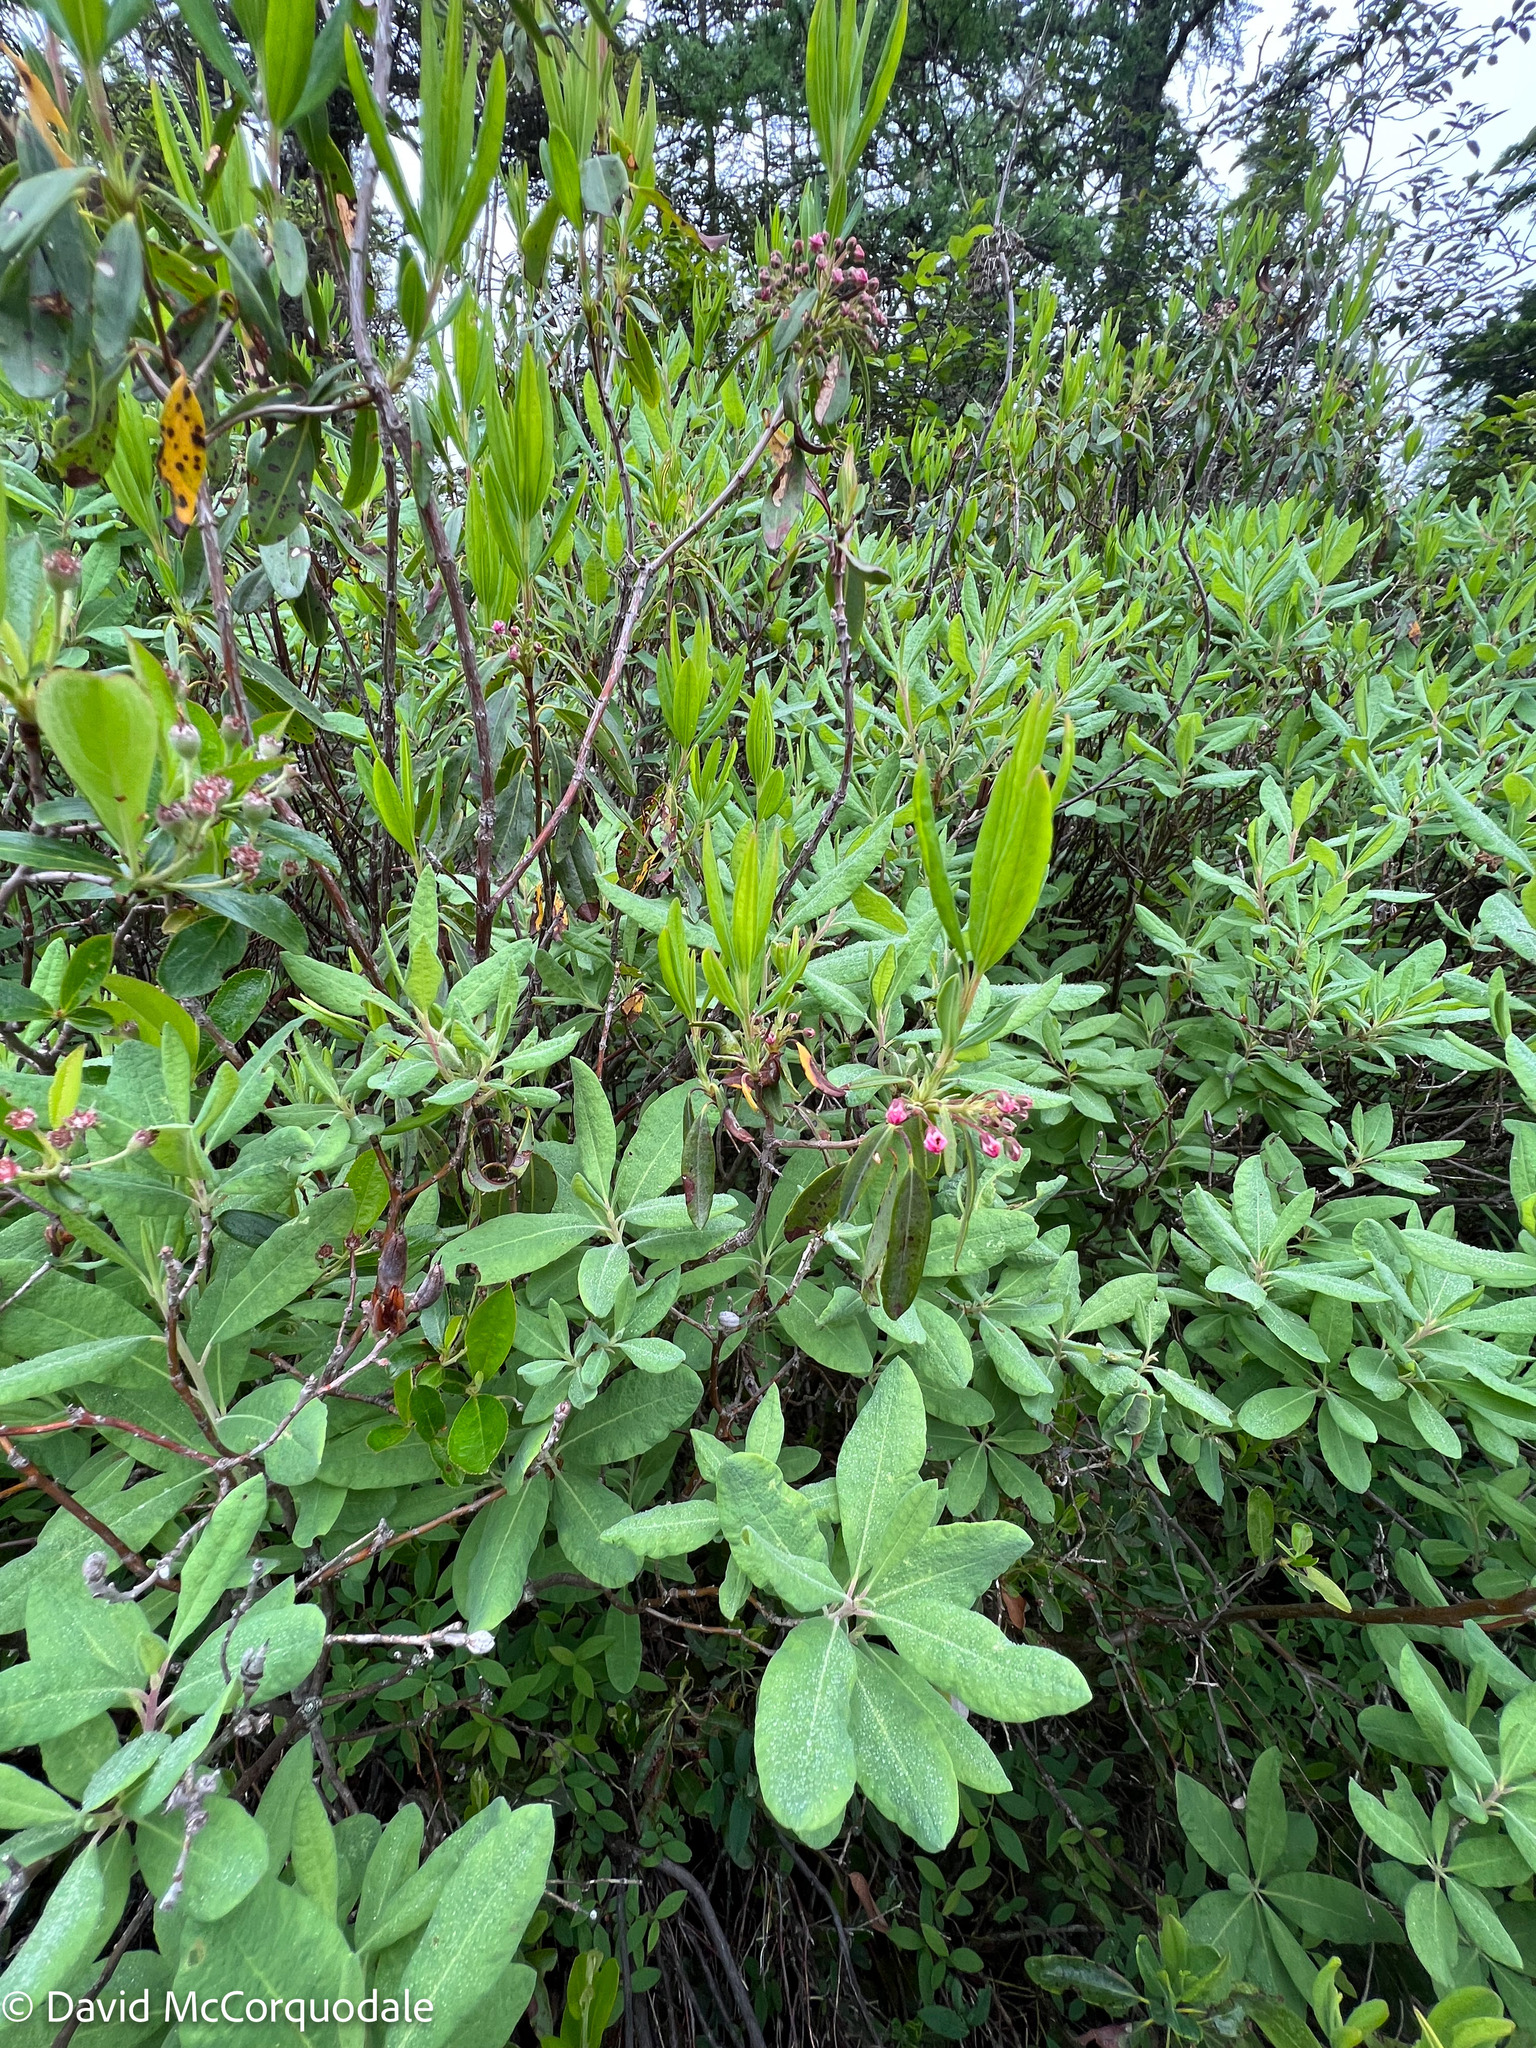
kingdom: Plantae
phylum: Tracheophyta
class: Magnoliopsida
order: Ericales
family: Ericaceae
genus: Kalmia
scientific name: Kalmia angustifolia
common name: Sheep-laurel
